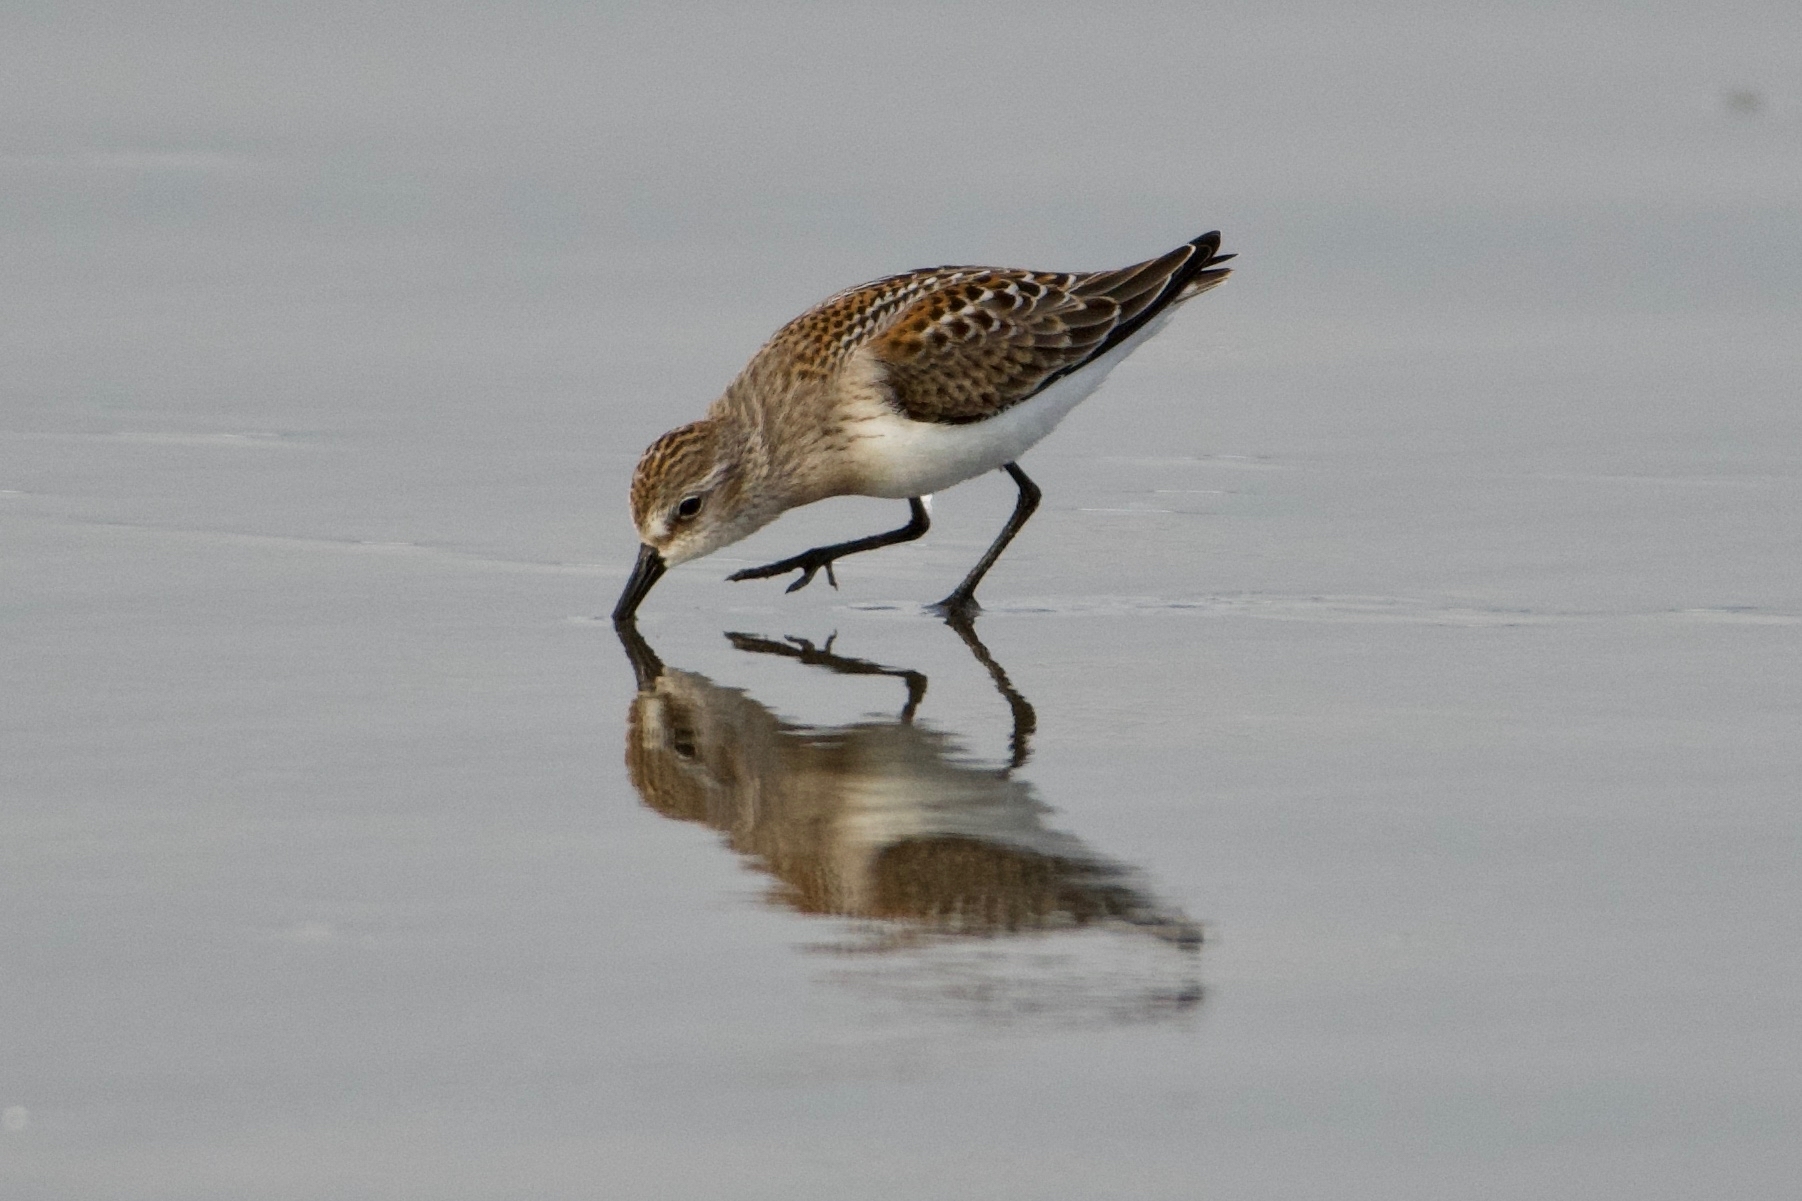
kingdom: Animalia
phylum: Chordata
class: Aves
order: Charadriiformes
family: Scolopacidae
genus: Calidris
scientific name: Calidris mauri
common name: Western sandpiper
